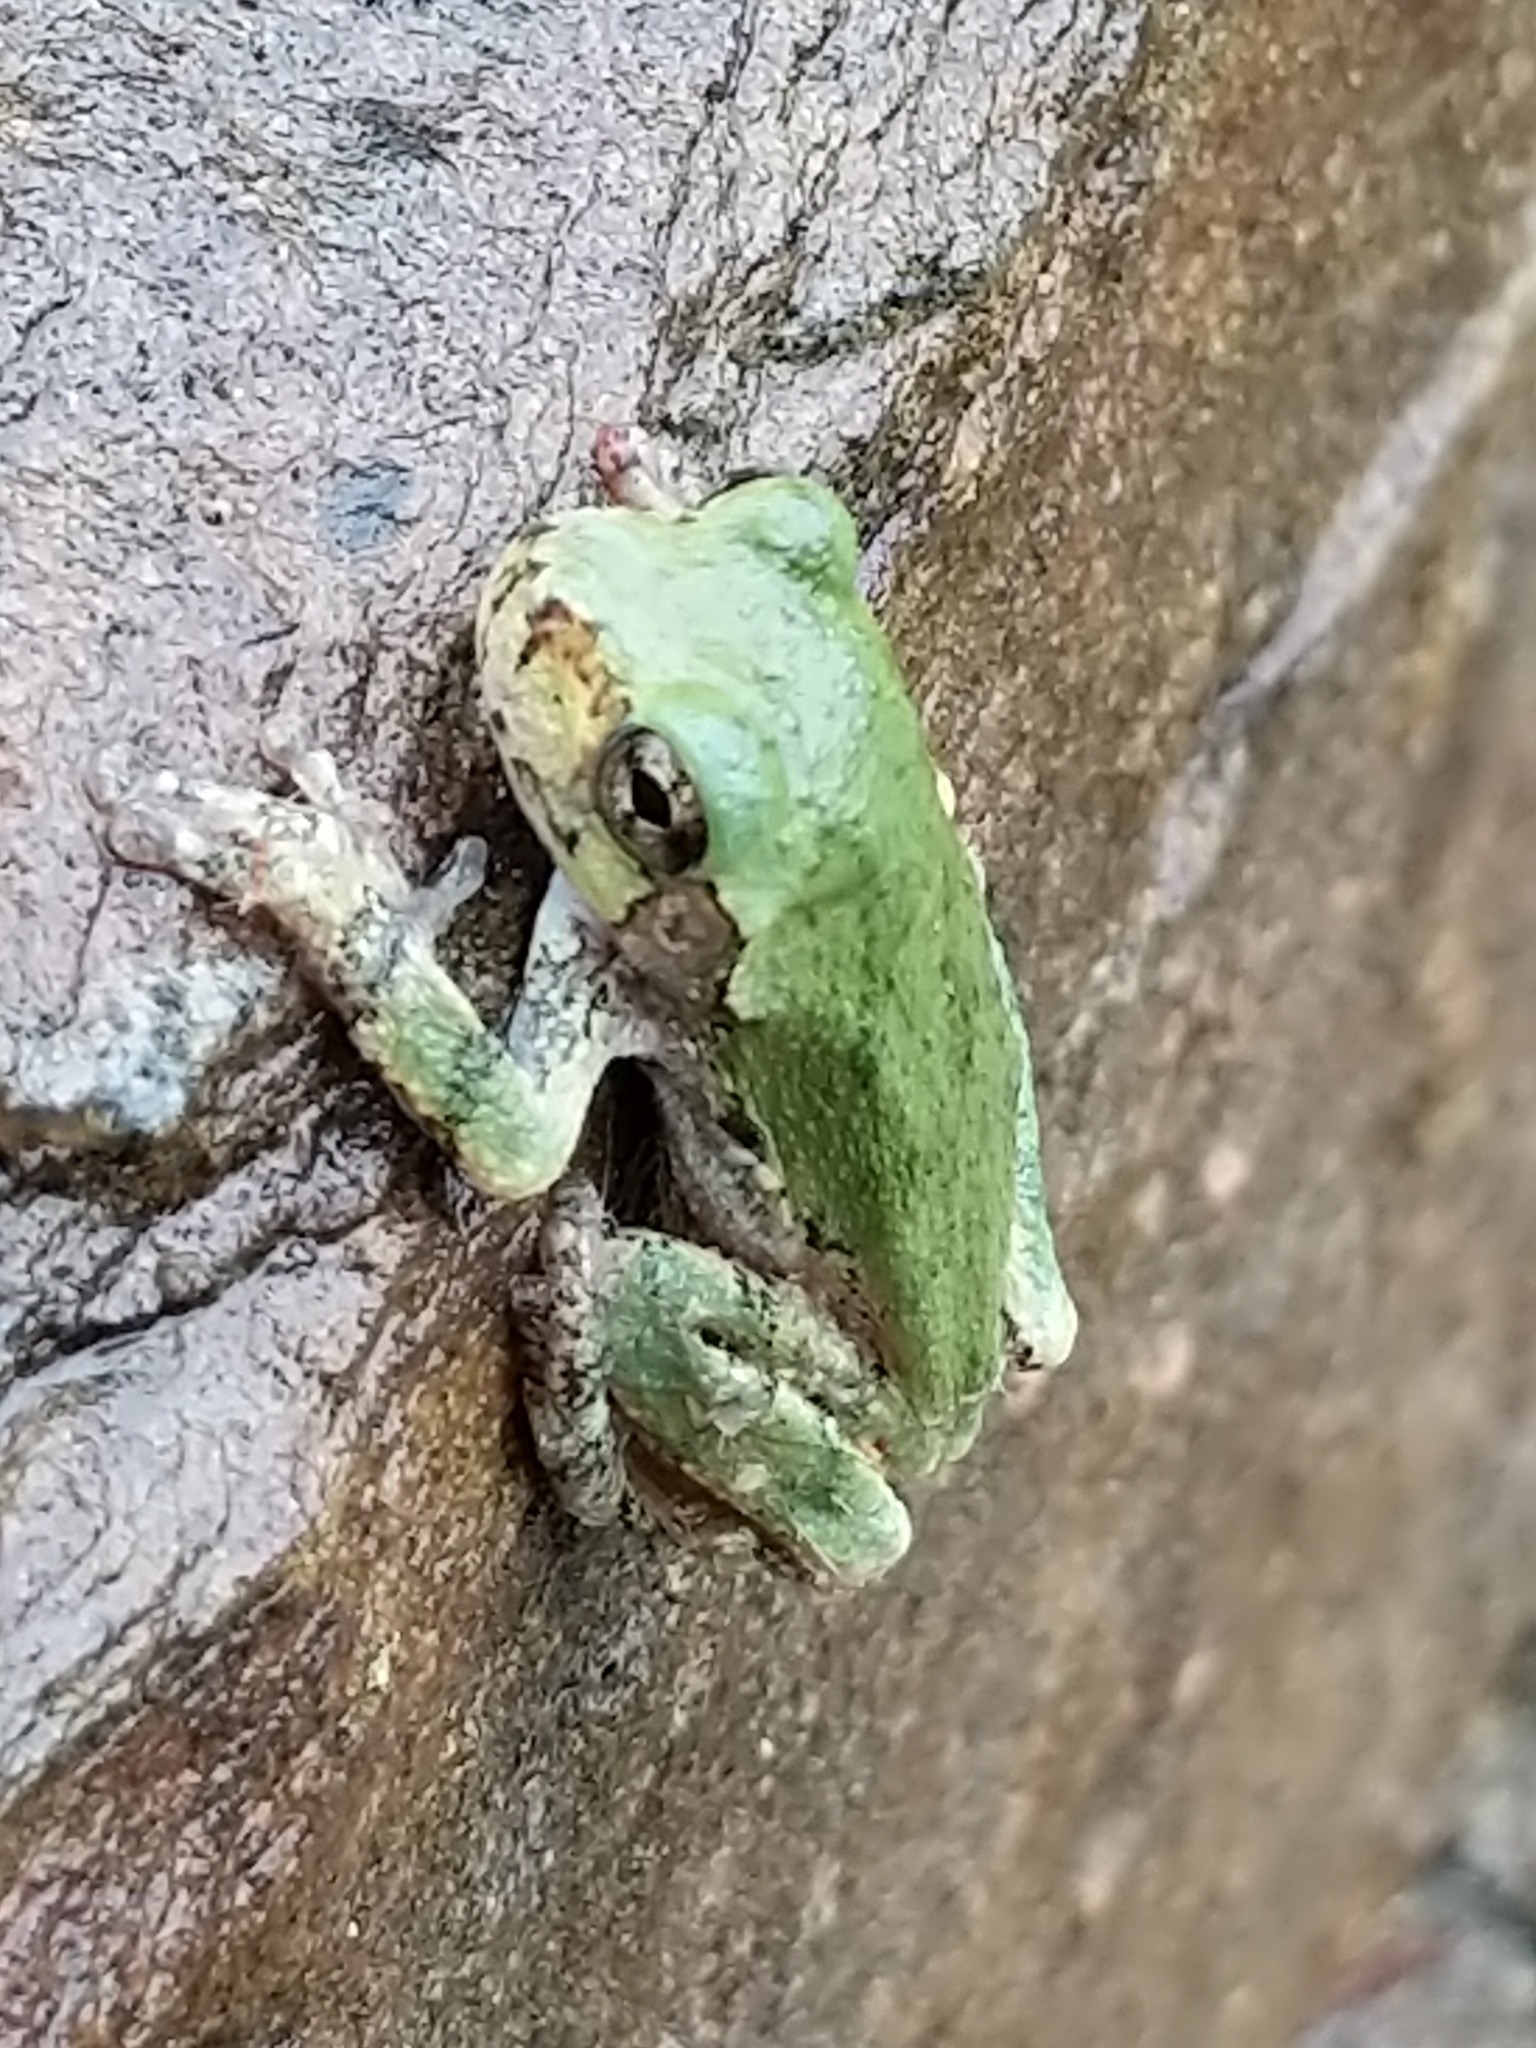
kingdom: Animalia
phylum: Chordata
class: Amphibia
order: Anura
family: Hylidae
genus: Dryophytes
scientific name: Dryophytes versicolor
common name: Gray treefrog
